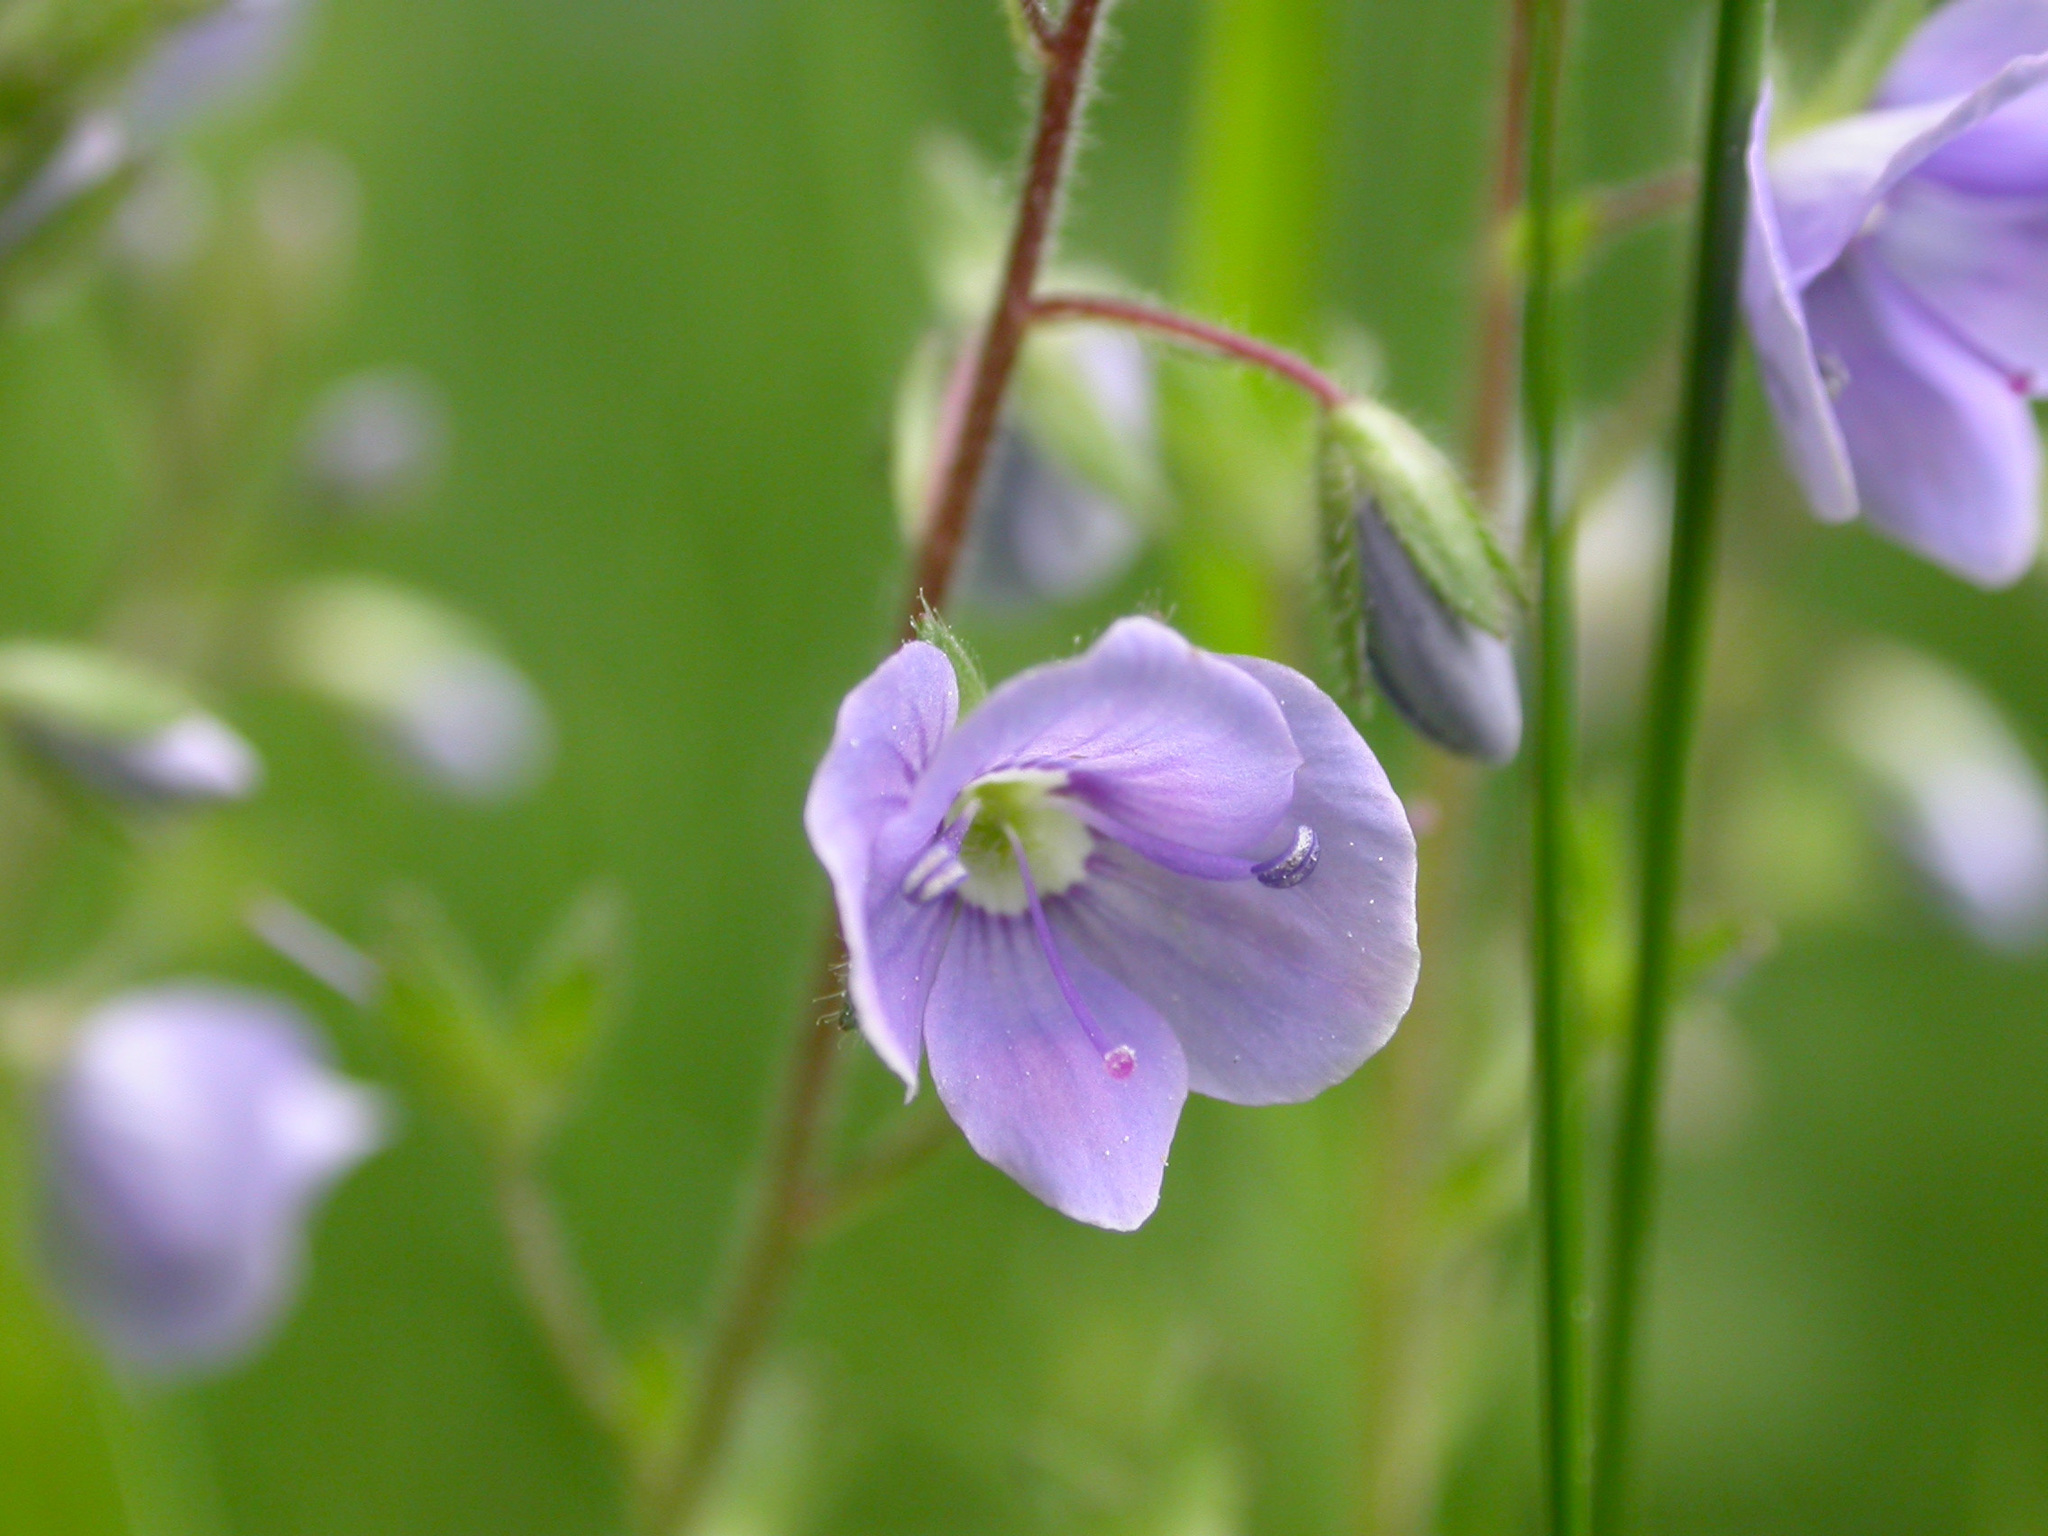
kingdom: Plantae
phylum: Tracheophyta
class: Magnoliopsida
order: Lamiales
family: Plantaginaceae
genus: Veronica
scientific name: Veronica chamaedrys
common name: Germander speedwell
